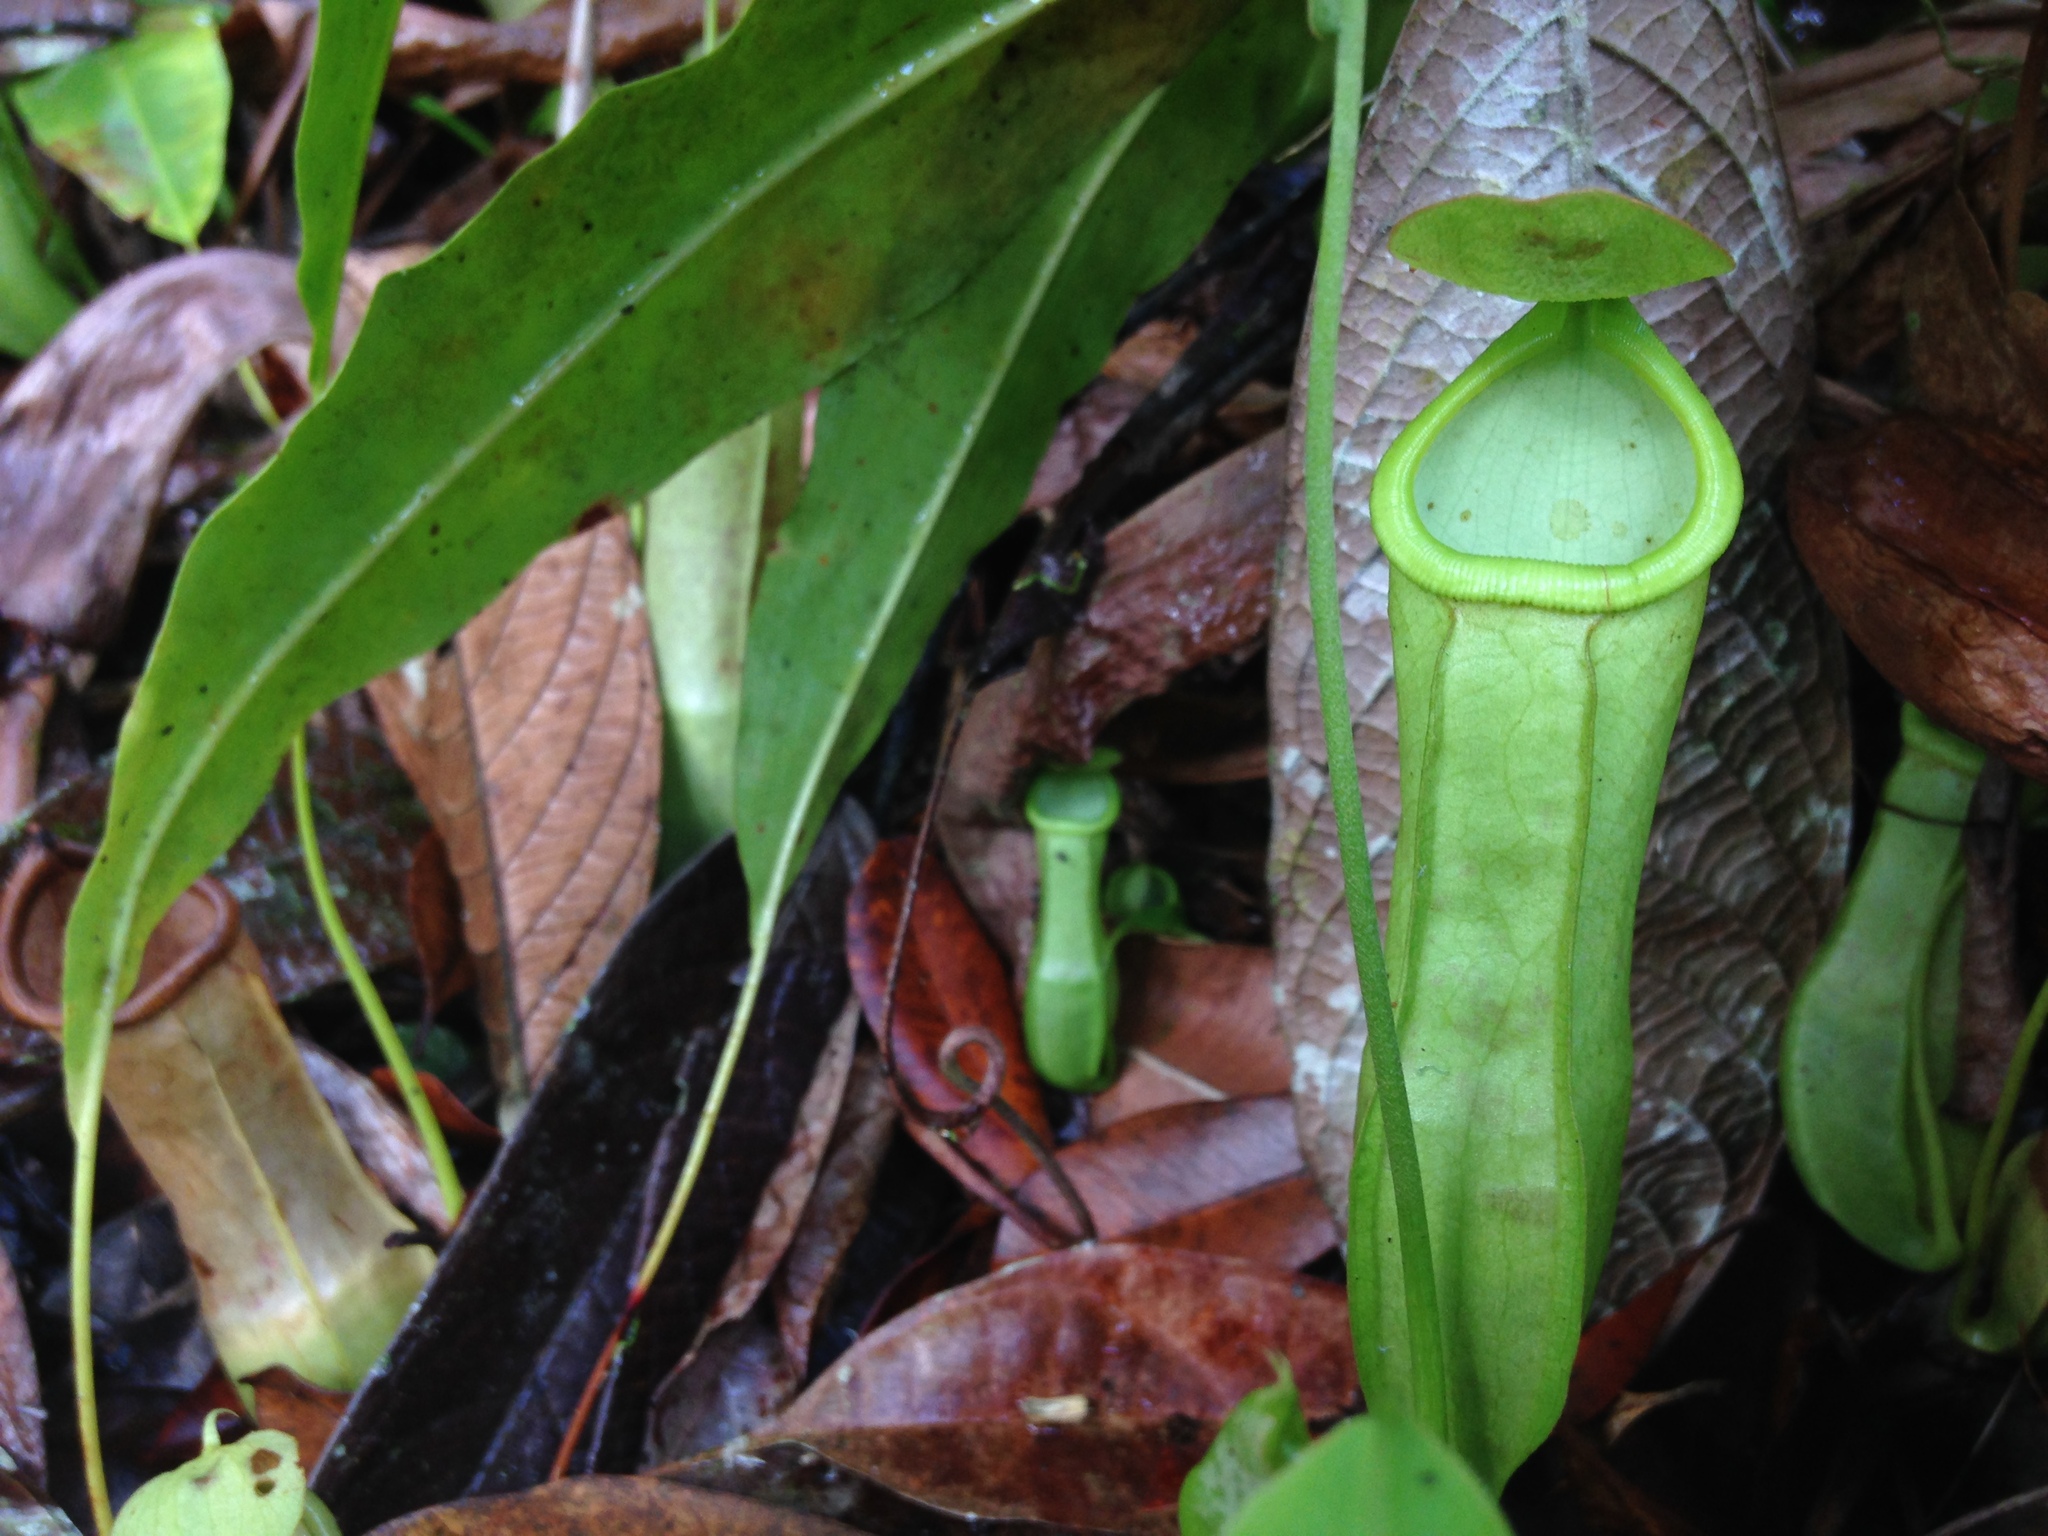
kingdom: Plantae
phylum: Tracheophyta
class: Magnoliopsida
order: Caryophyllales
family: Nepenthaceae
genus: Nepenthes
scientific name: Nepenthes mirabilis
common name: Tropical pitcherplant
